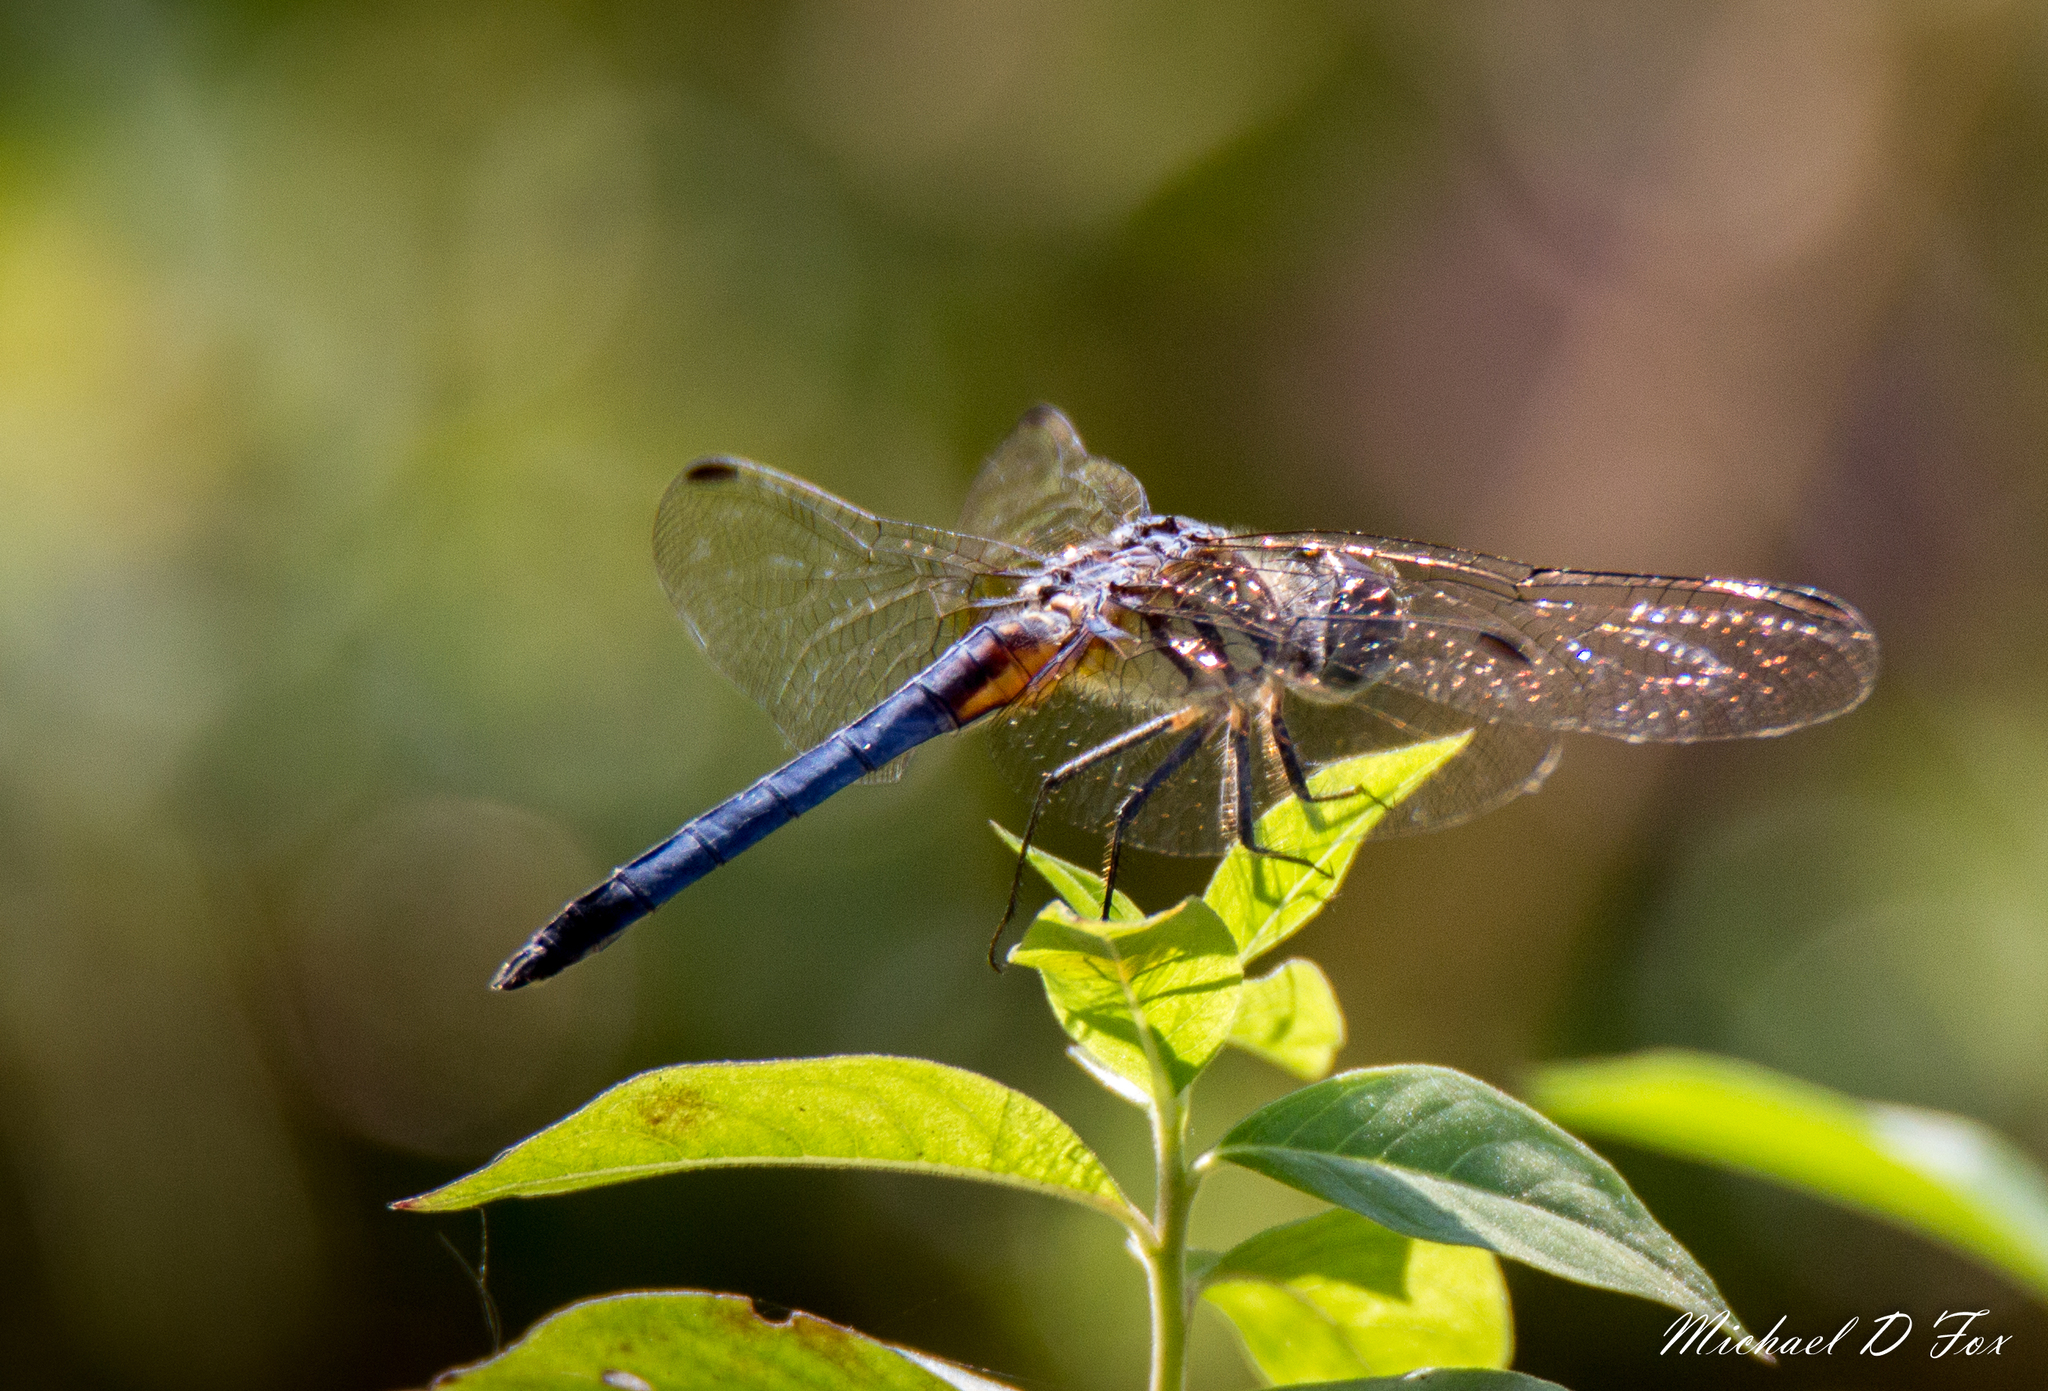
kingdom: Animalia
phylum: Arthropoda
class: Insecta
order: Odonata
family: Libellulidae
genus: Pachydiplax
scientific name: Pachydiplax longipennis
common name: Blue dasher
